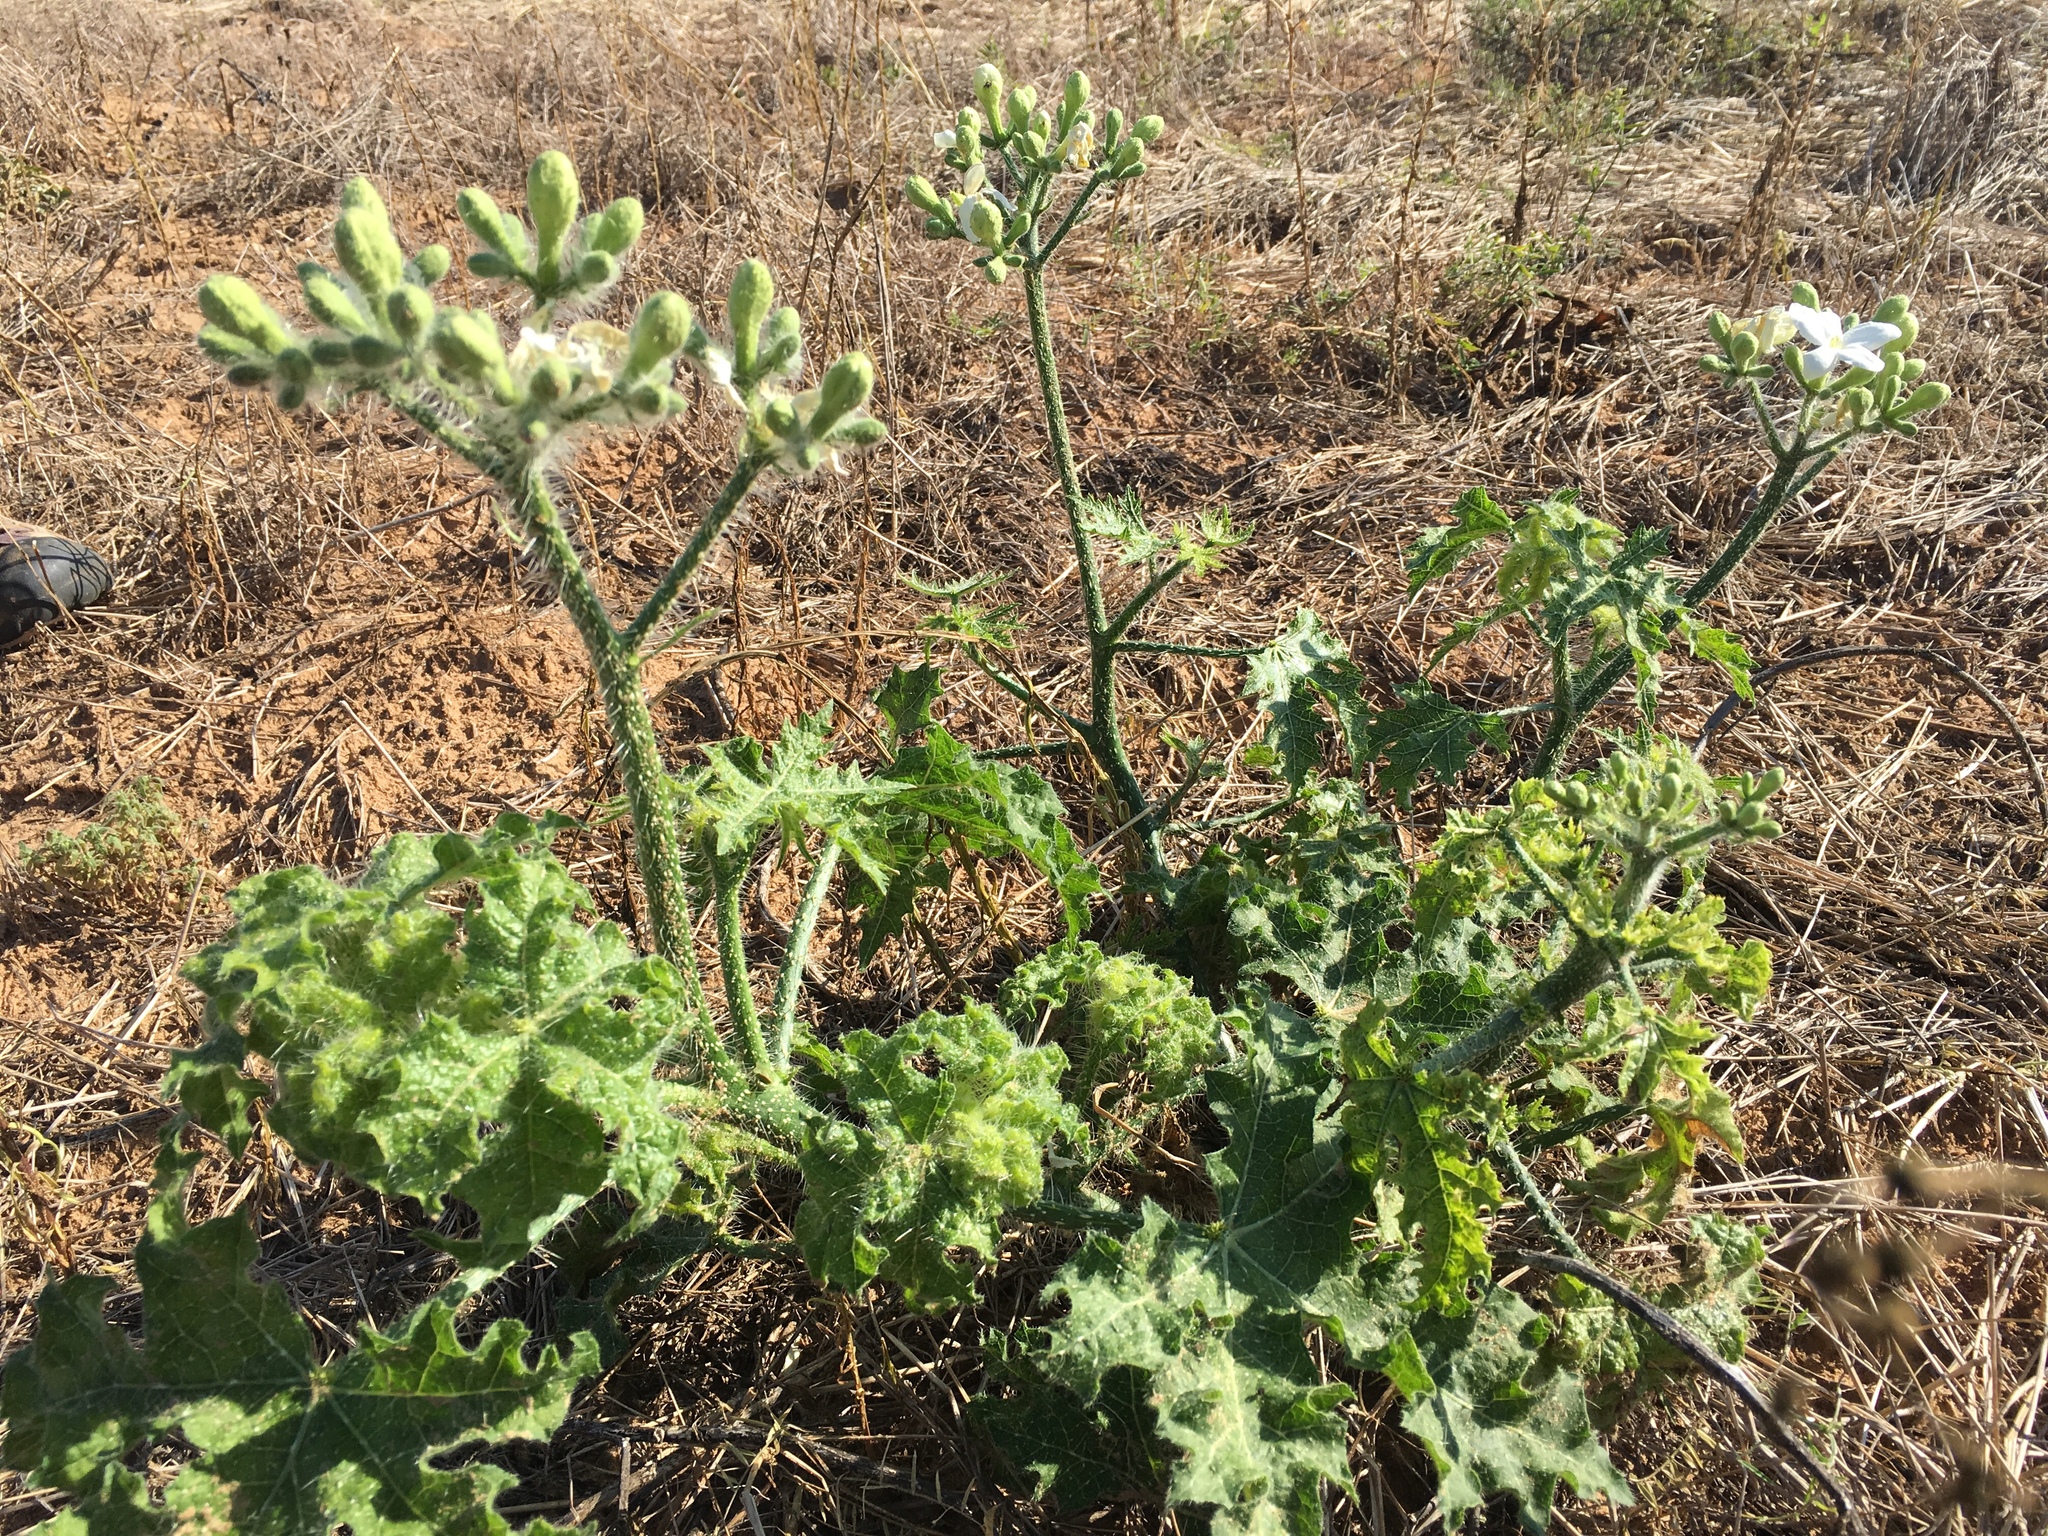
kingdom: Plantae
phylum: Tracheophyta
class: Magnoliopsida
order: Malpighiales
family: Euphorbiaceae
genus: Cnidoscolus
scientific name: Cnidoscolus texanus
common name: Texas bull-nettle
